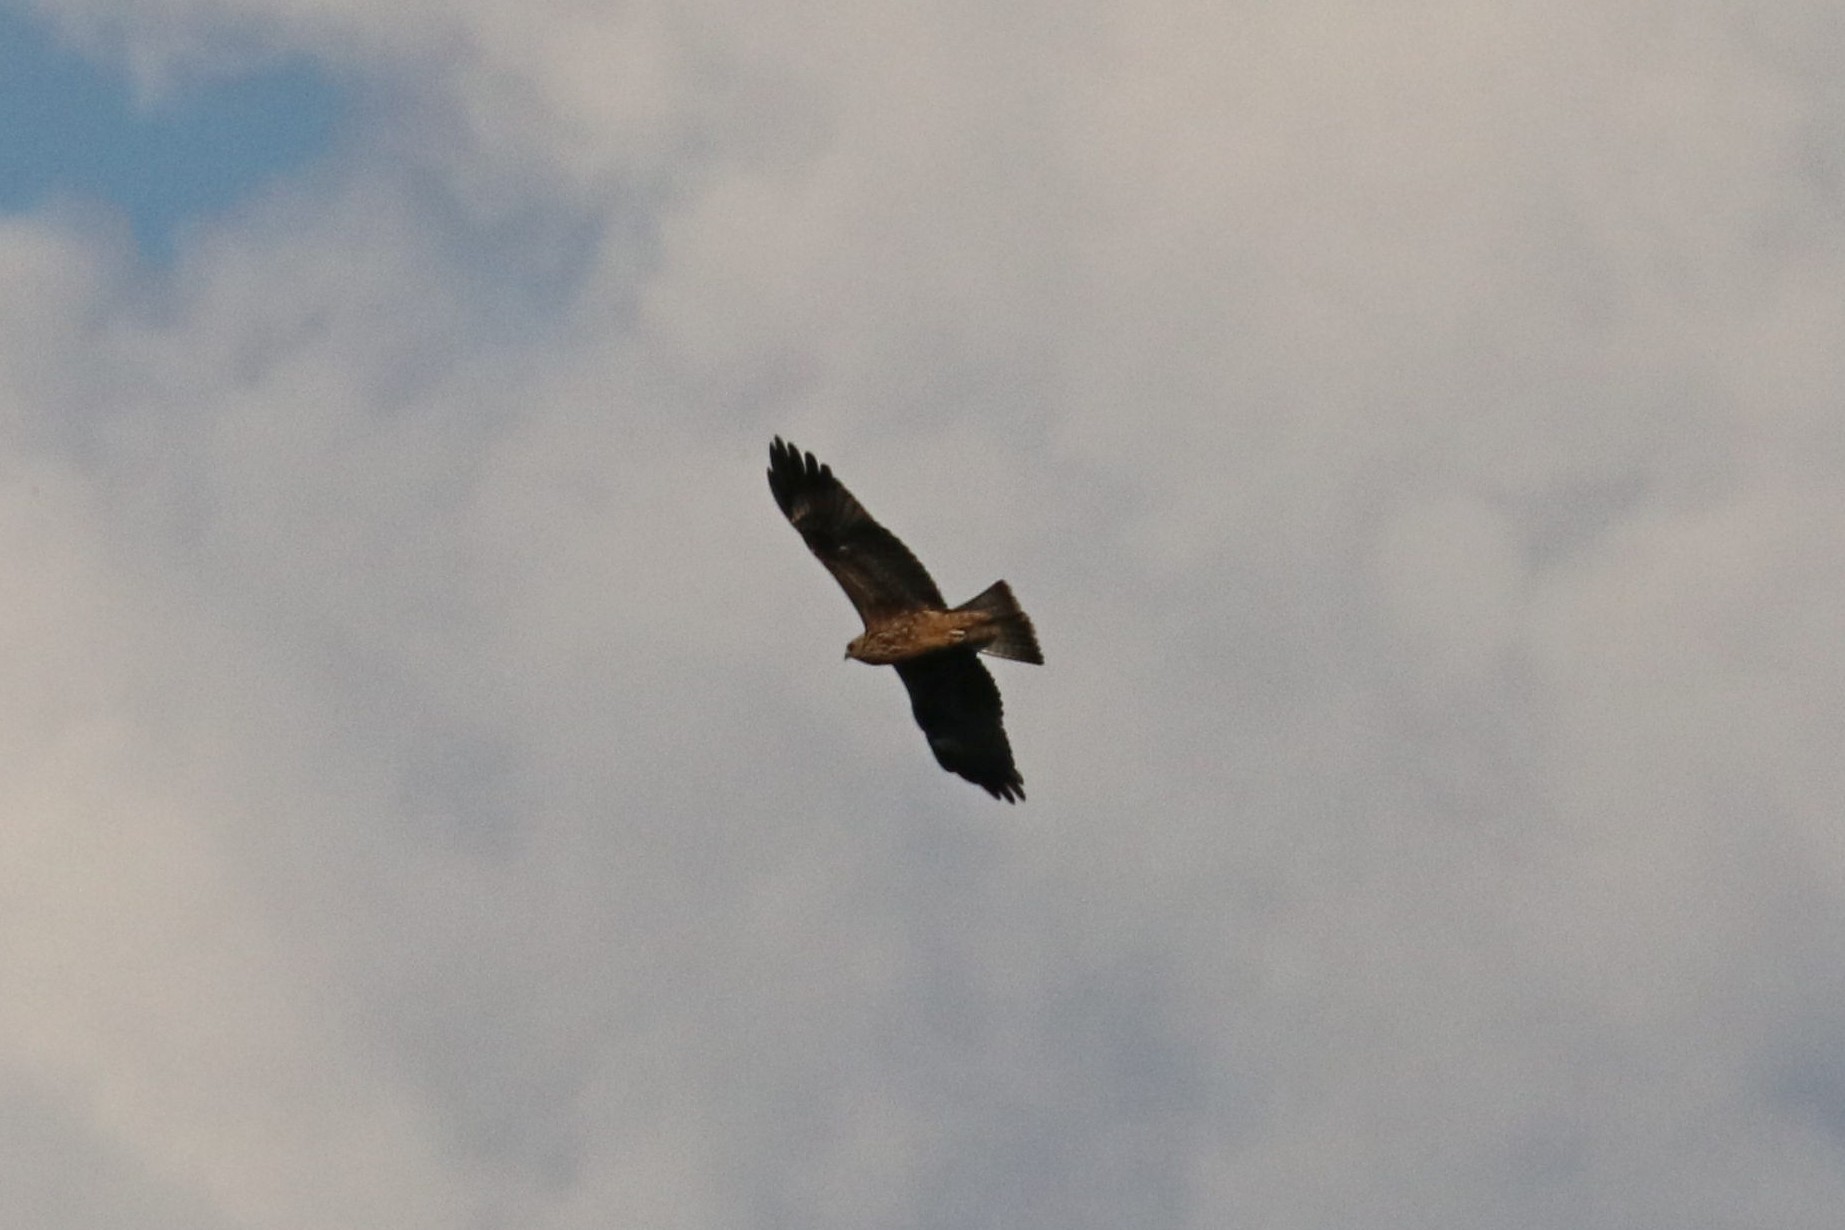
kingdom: Animalia
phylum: Chordata
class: Aves
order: Accipitriformes
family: Accipitridae
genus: Milvus
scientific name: Milvus migrans
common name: Black kite
